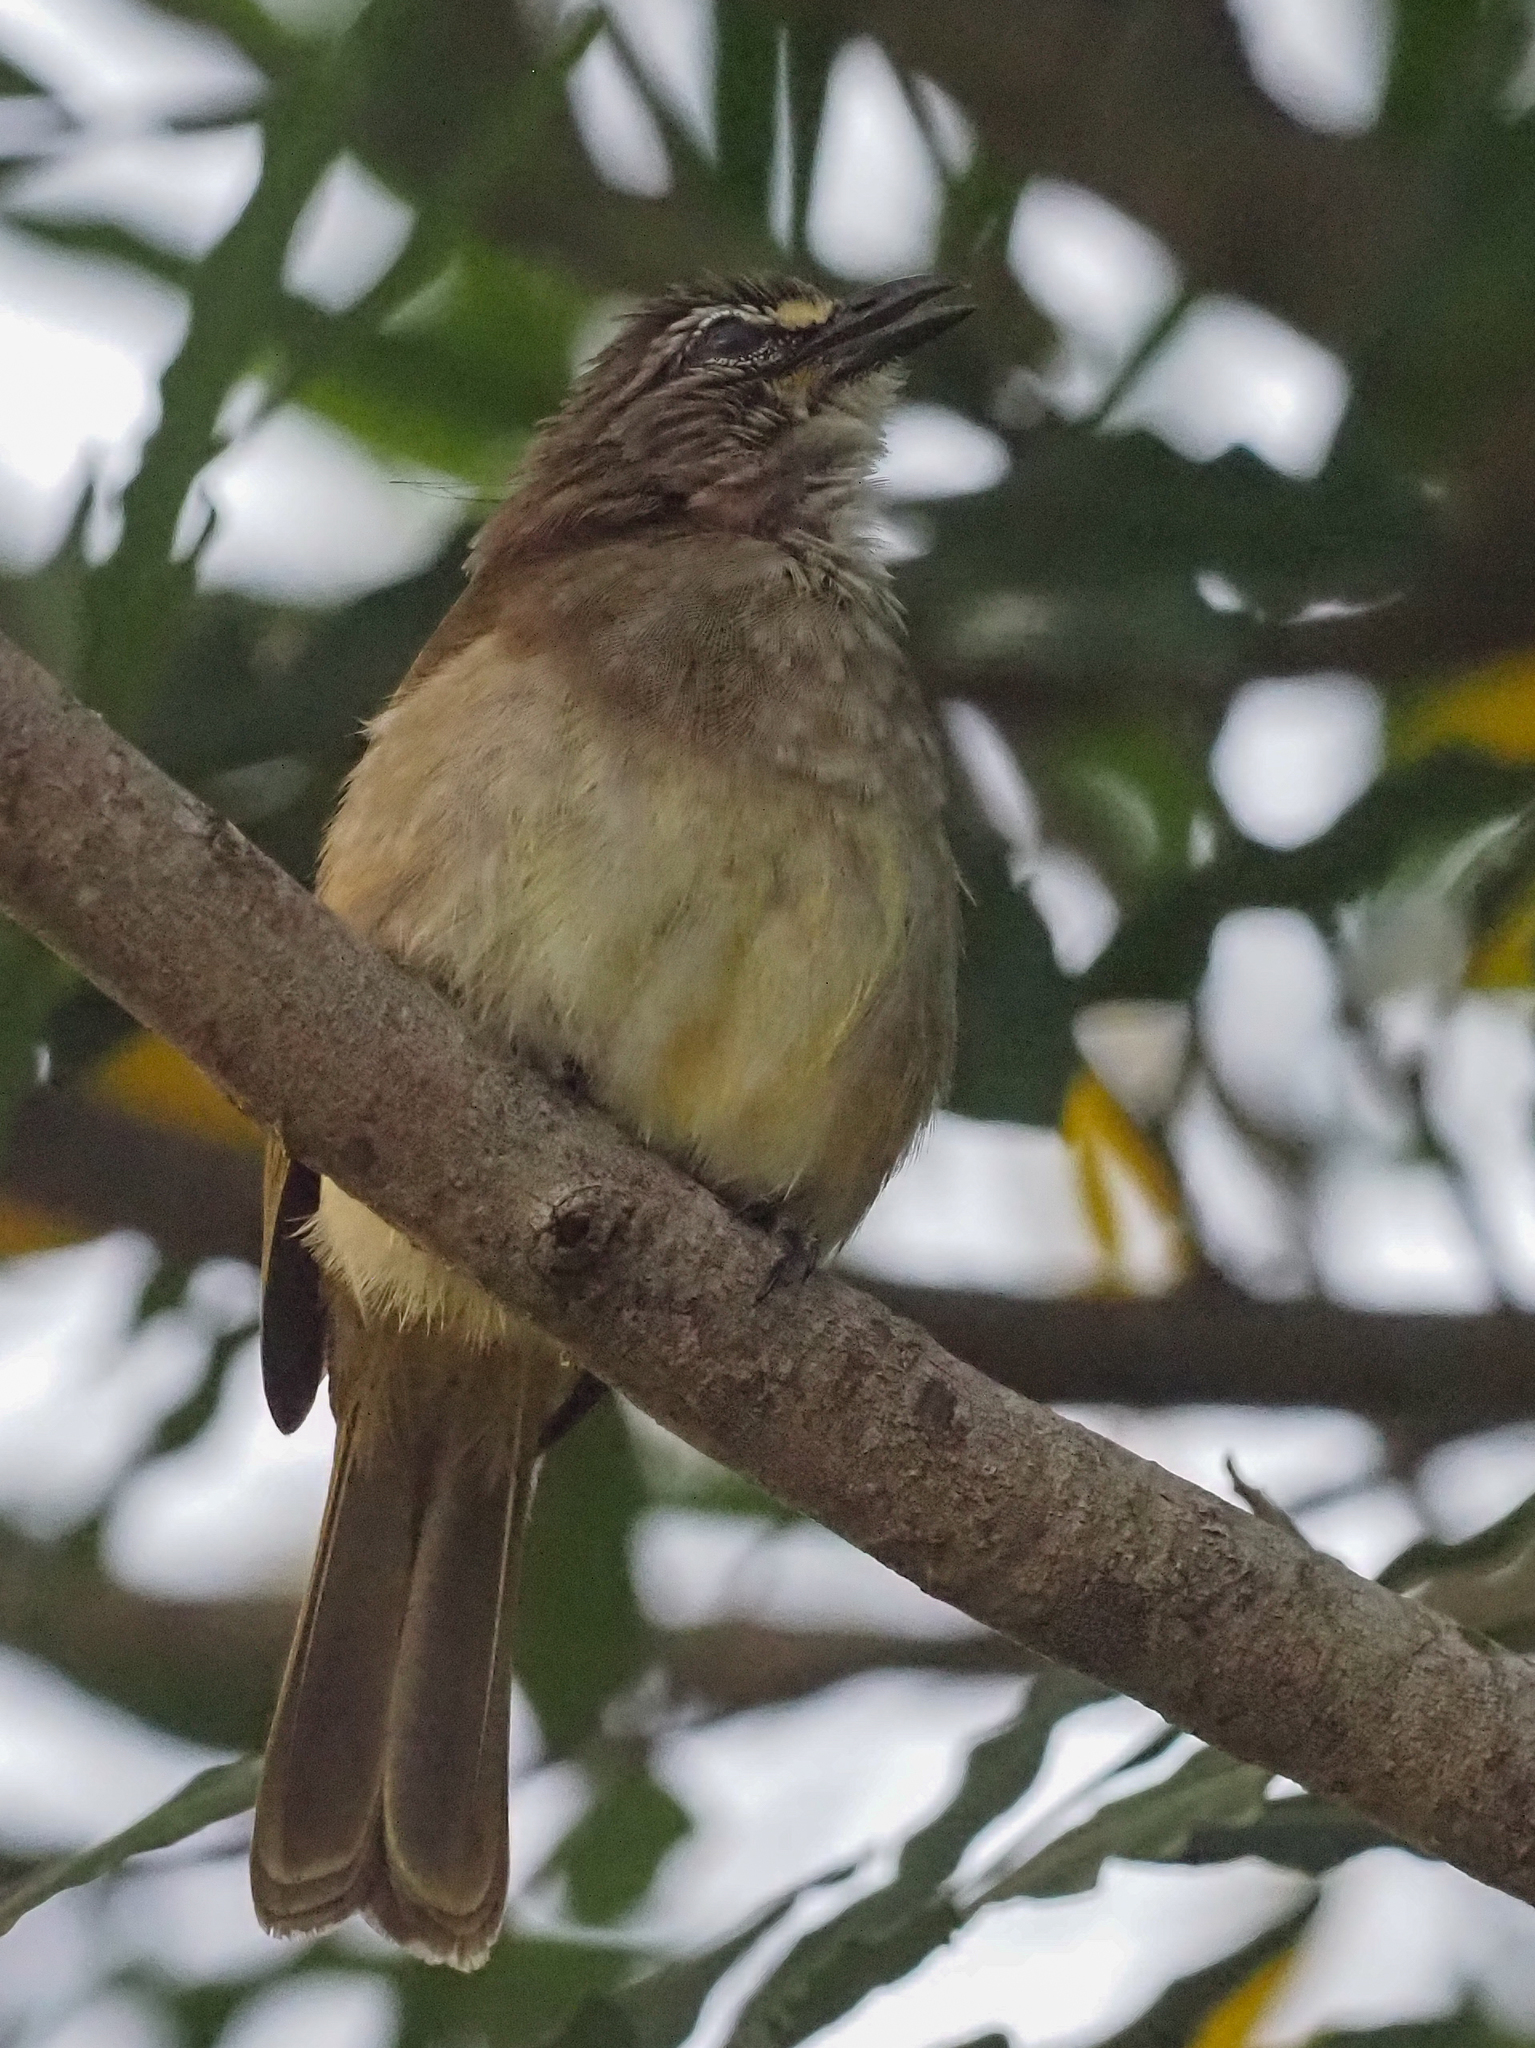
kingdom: Animalia
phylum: Chordata
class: Aves
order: Passeriformes
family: Pycnonotidae
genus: Pycnonotus
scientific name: Pycnonotus luteolus
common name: White-browed bulbul
